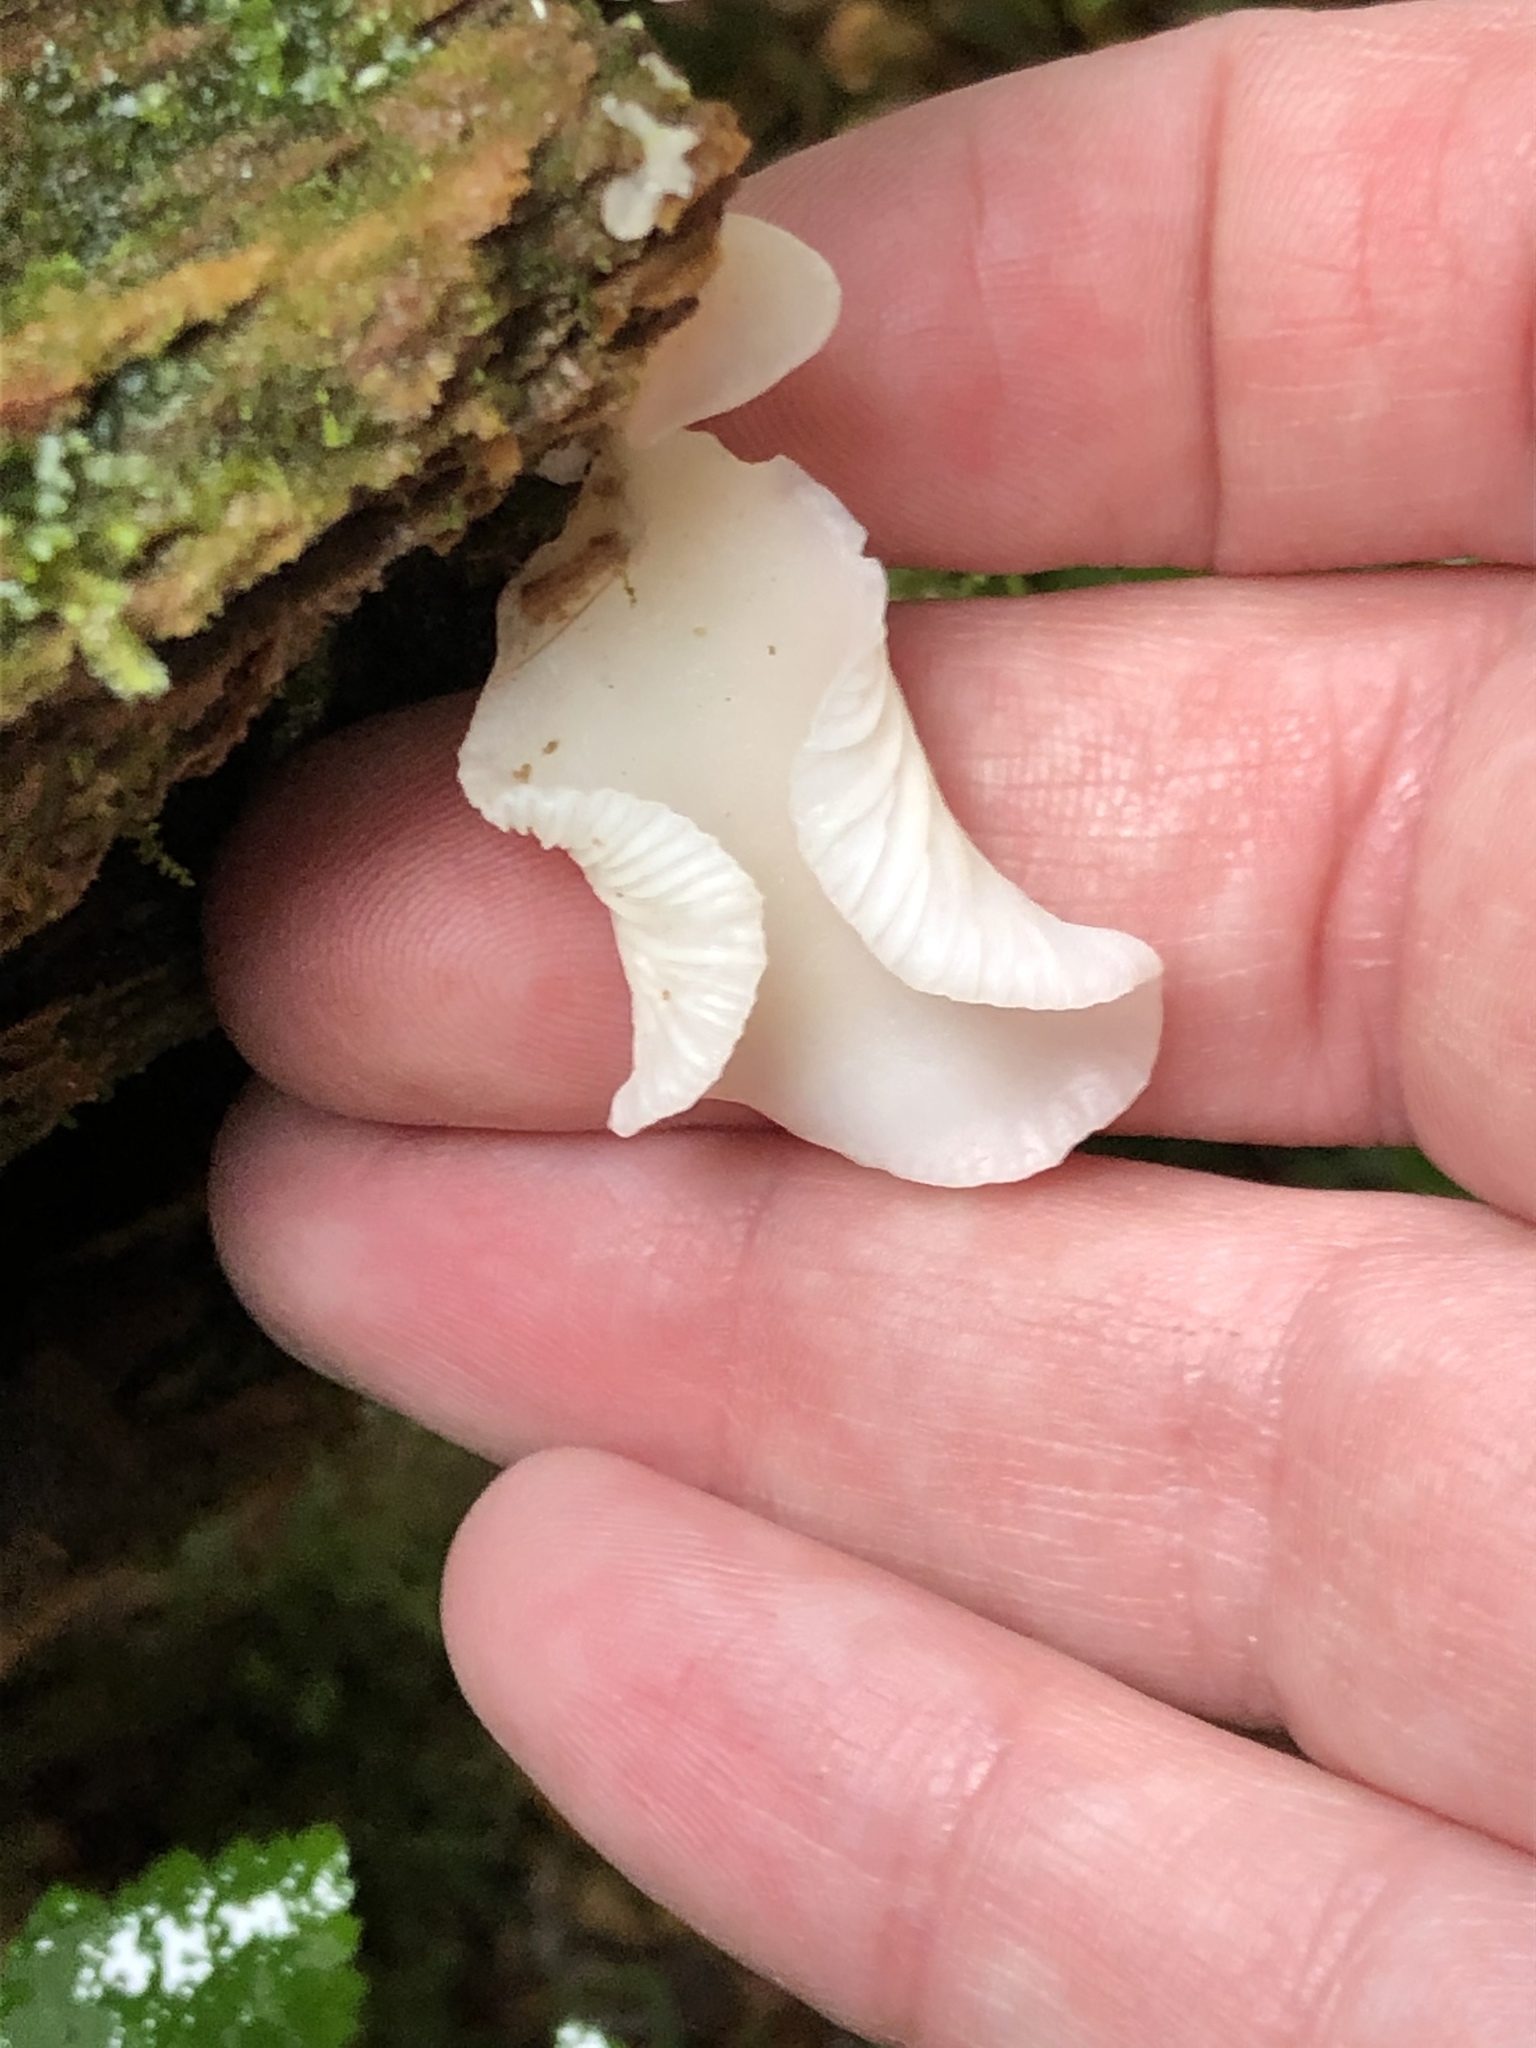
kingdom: Fungi
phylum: Basidiomycota
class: Agaricomycetes
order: Agaricales
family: Marasmiaceae
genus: Pleurocybella
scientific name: Pleurocybella porrigens
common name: Angel's wings
